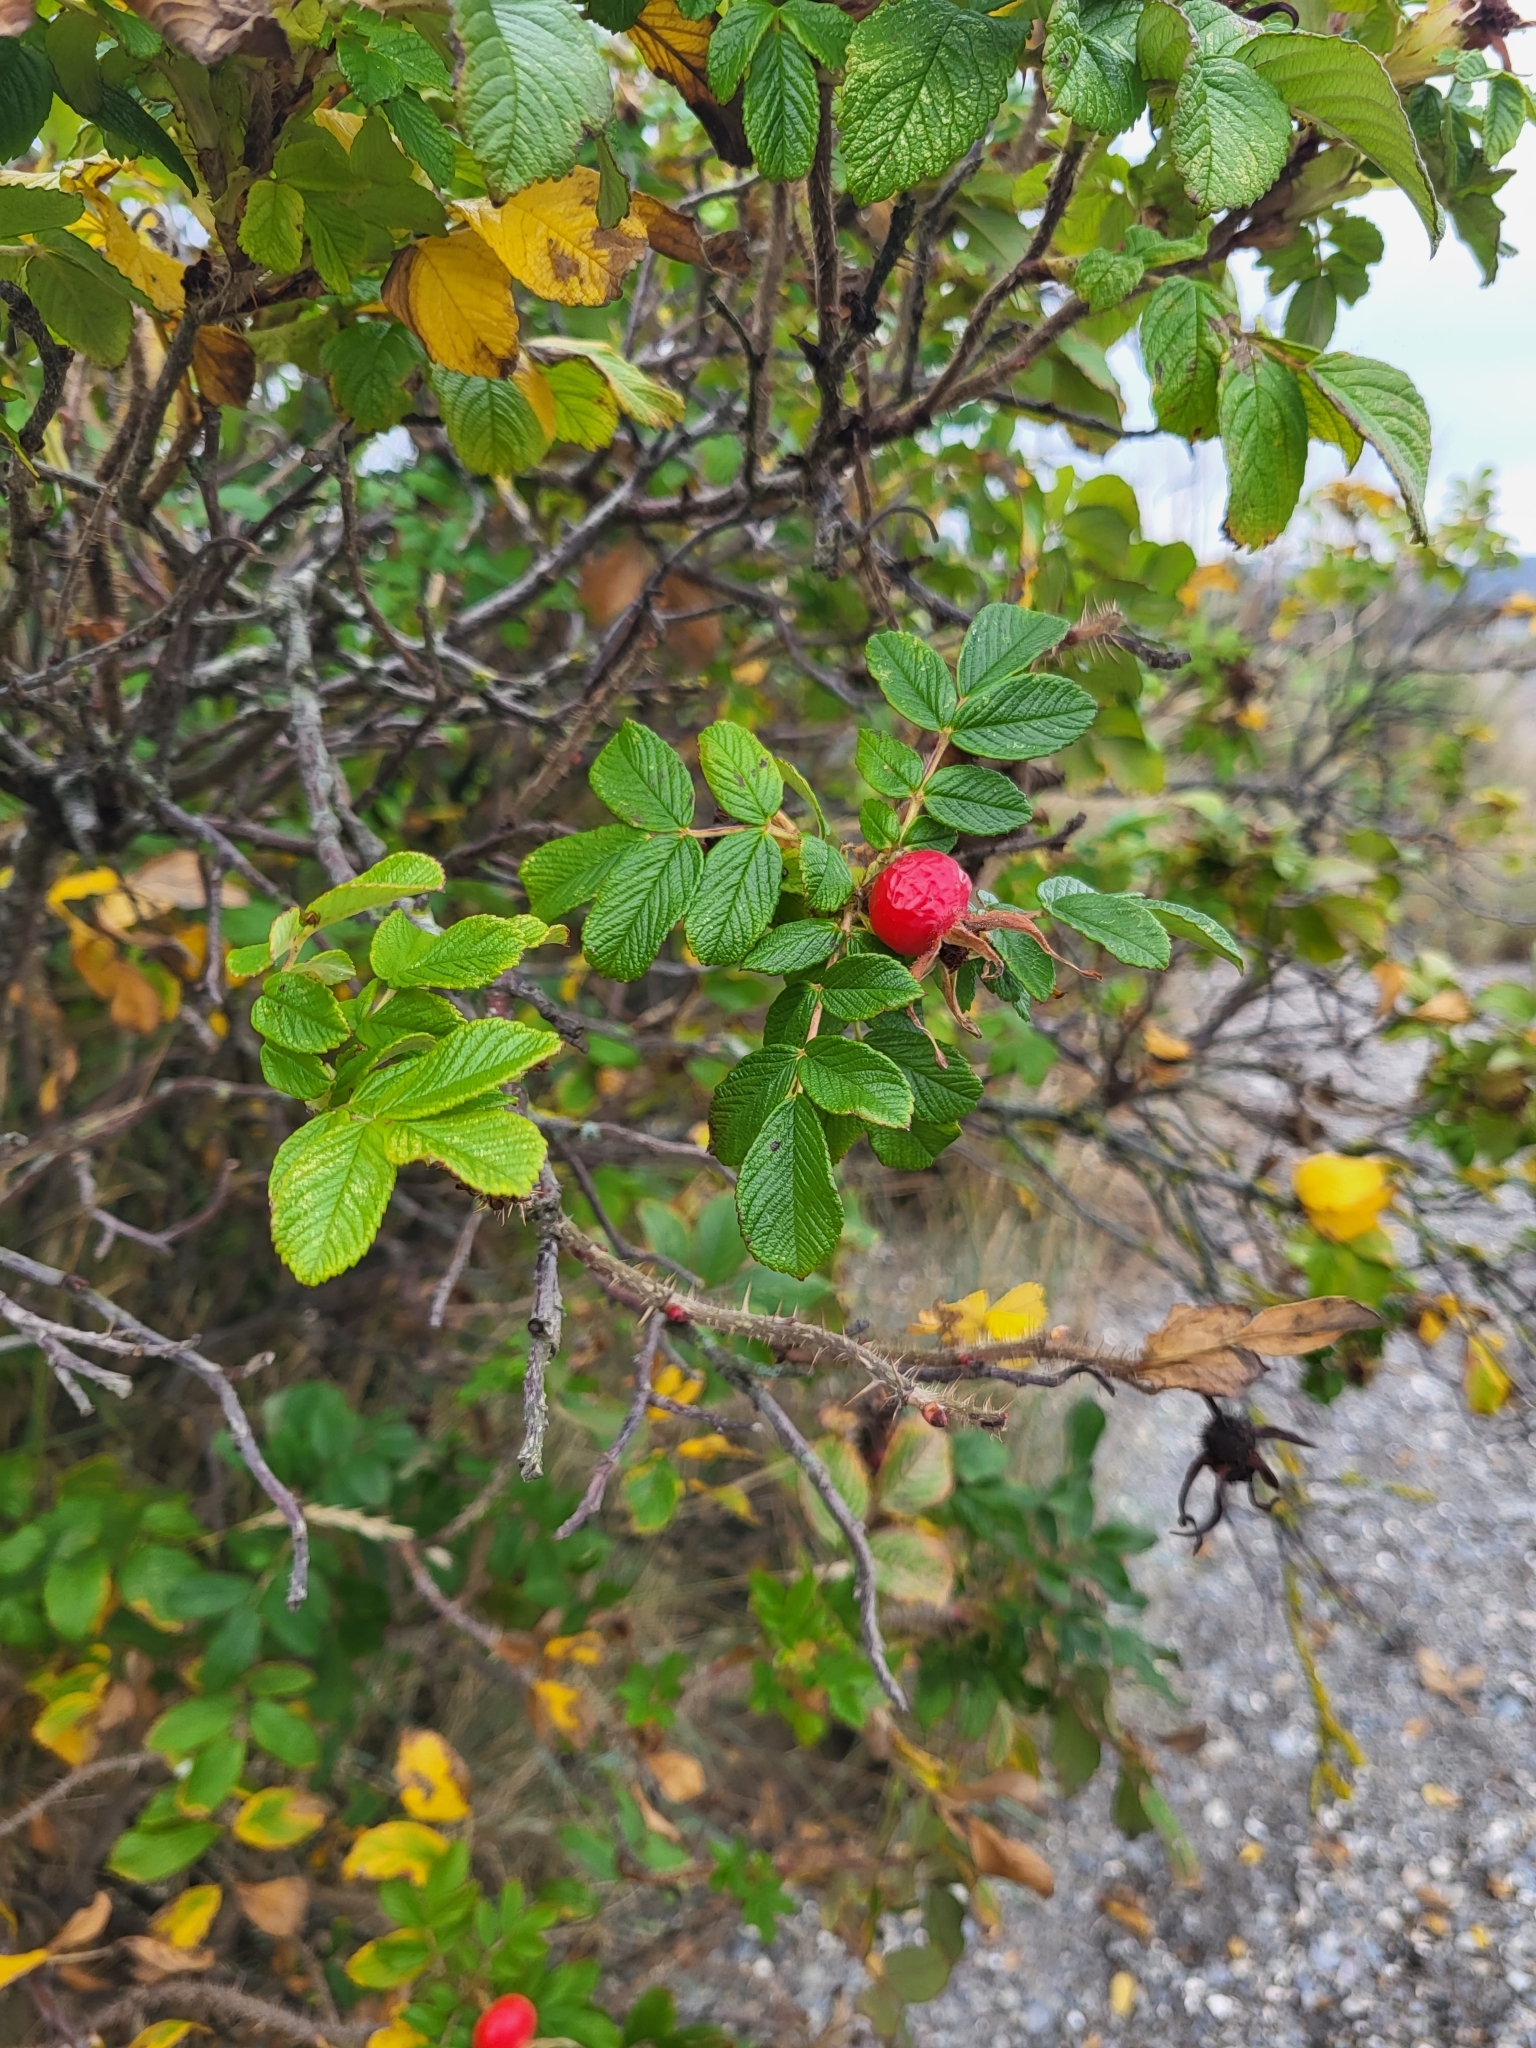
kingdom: Plantae
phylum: Tracheophyta
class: Magnoliopsida
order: Rosales
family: Rosaceae
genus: Rosa
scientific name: Rosa rugosa
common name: Japanese rose
